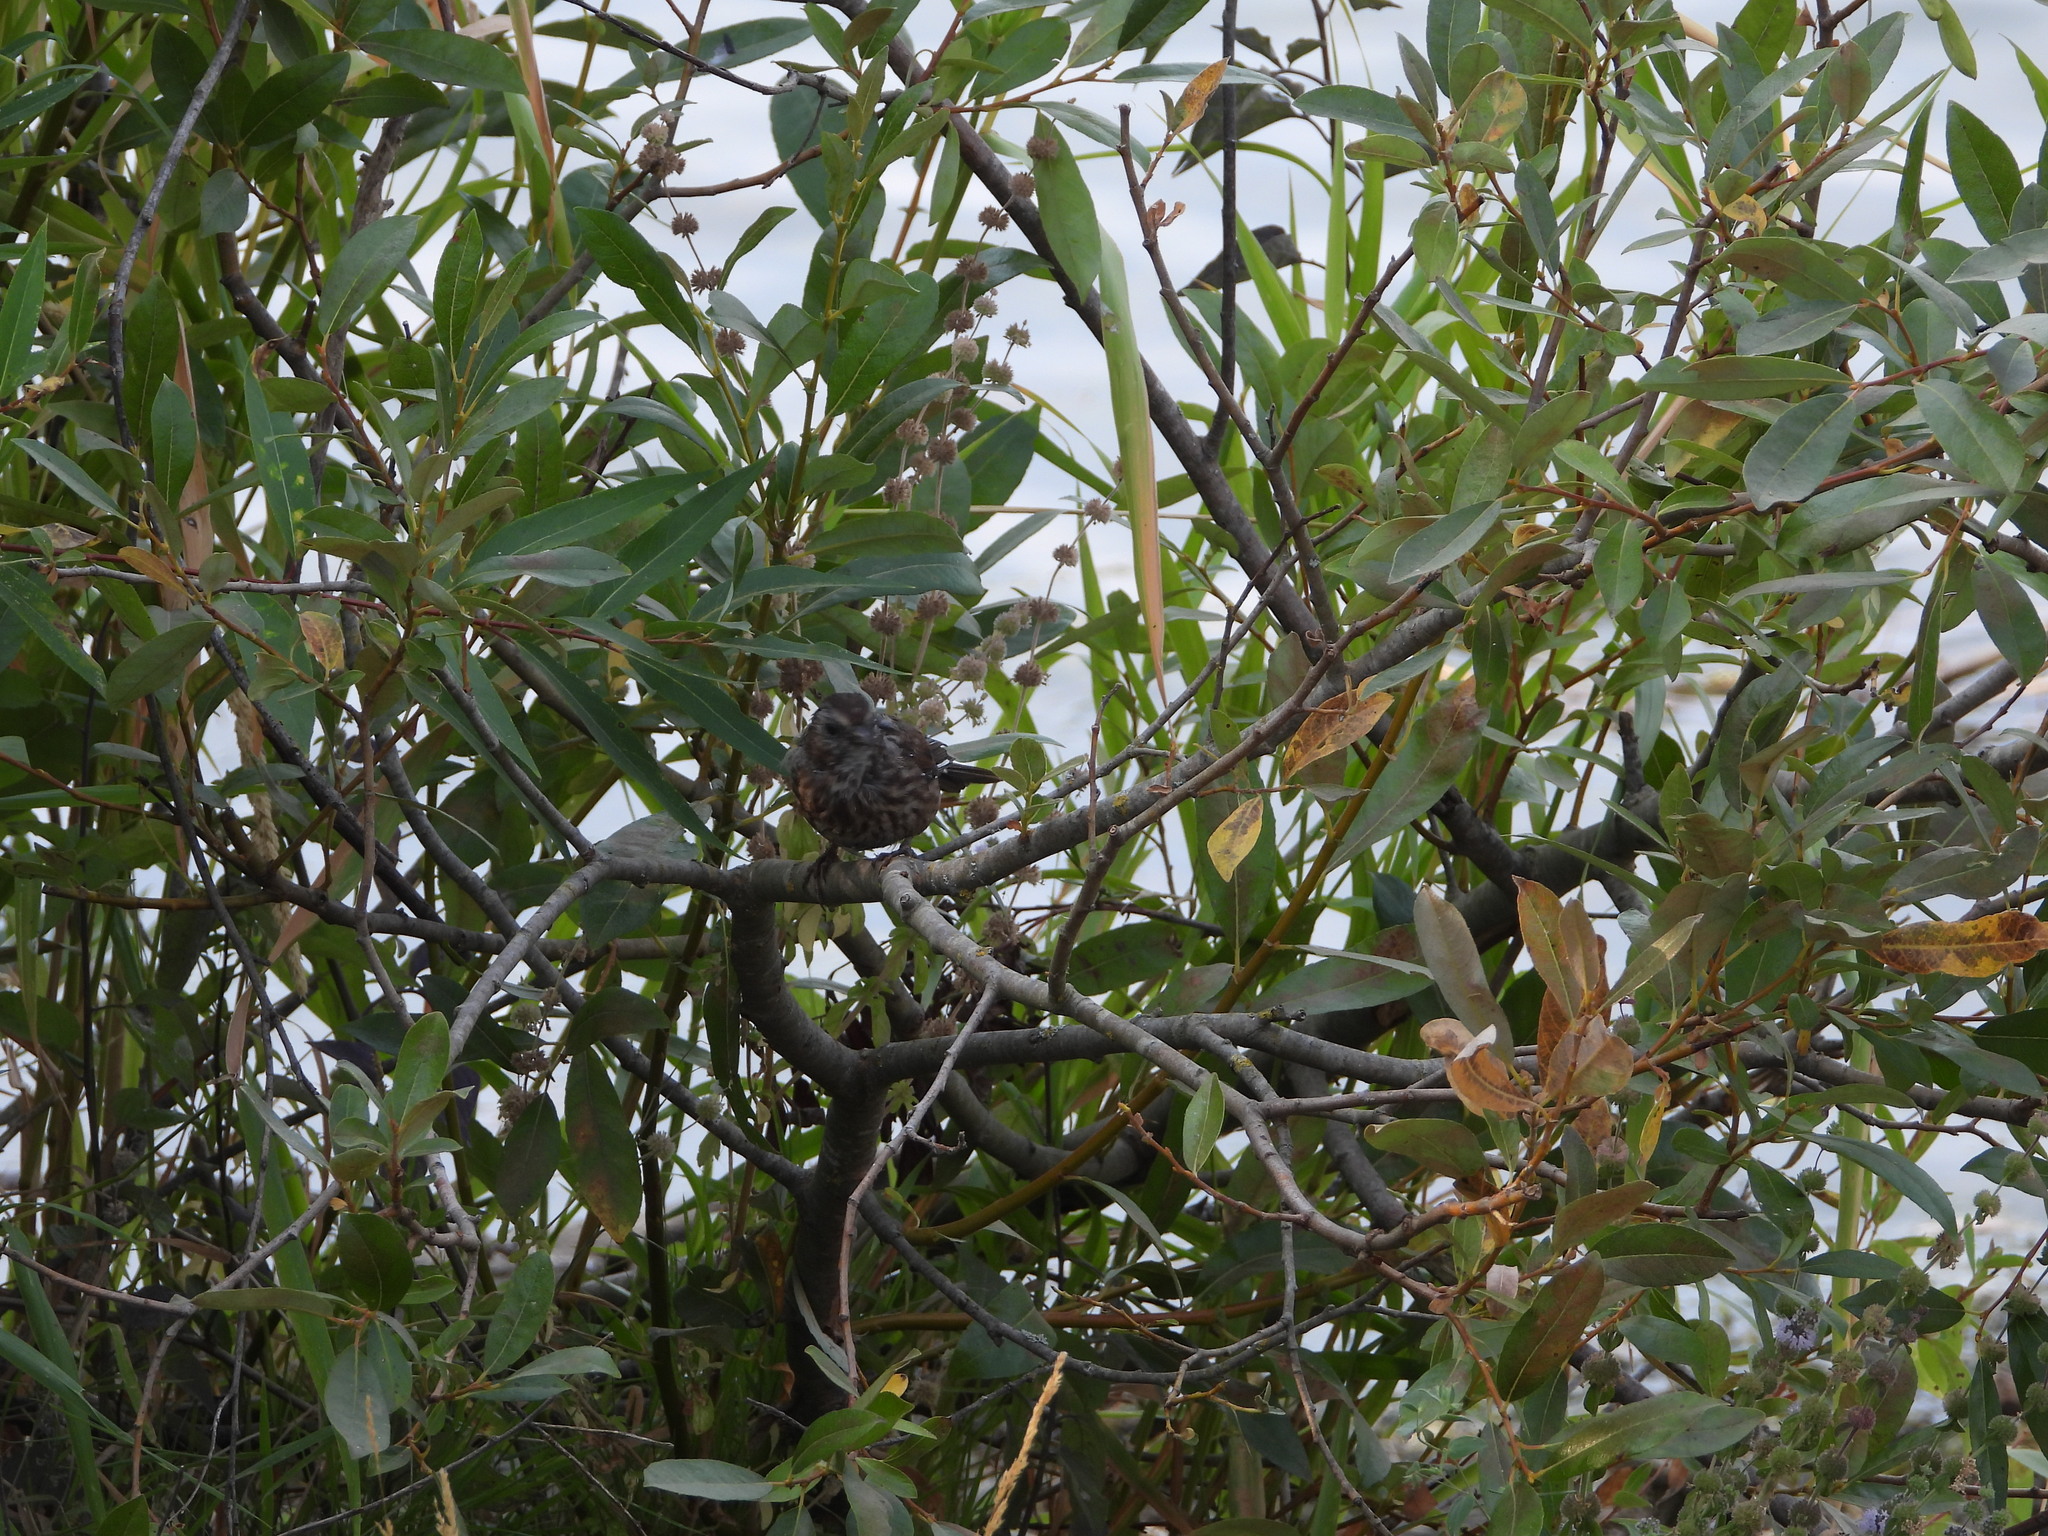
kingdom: Animalia
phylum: Chordata
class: Aves
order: Passeriformes
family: Passerellidae
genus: Melospiza
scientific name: Melospiza melodia
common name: Song sparrow
